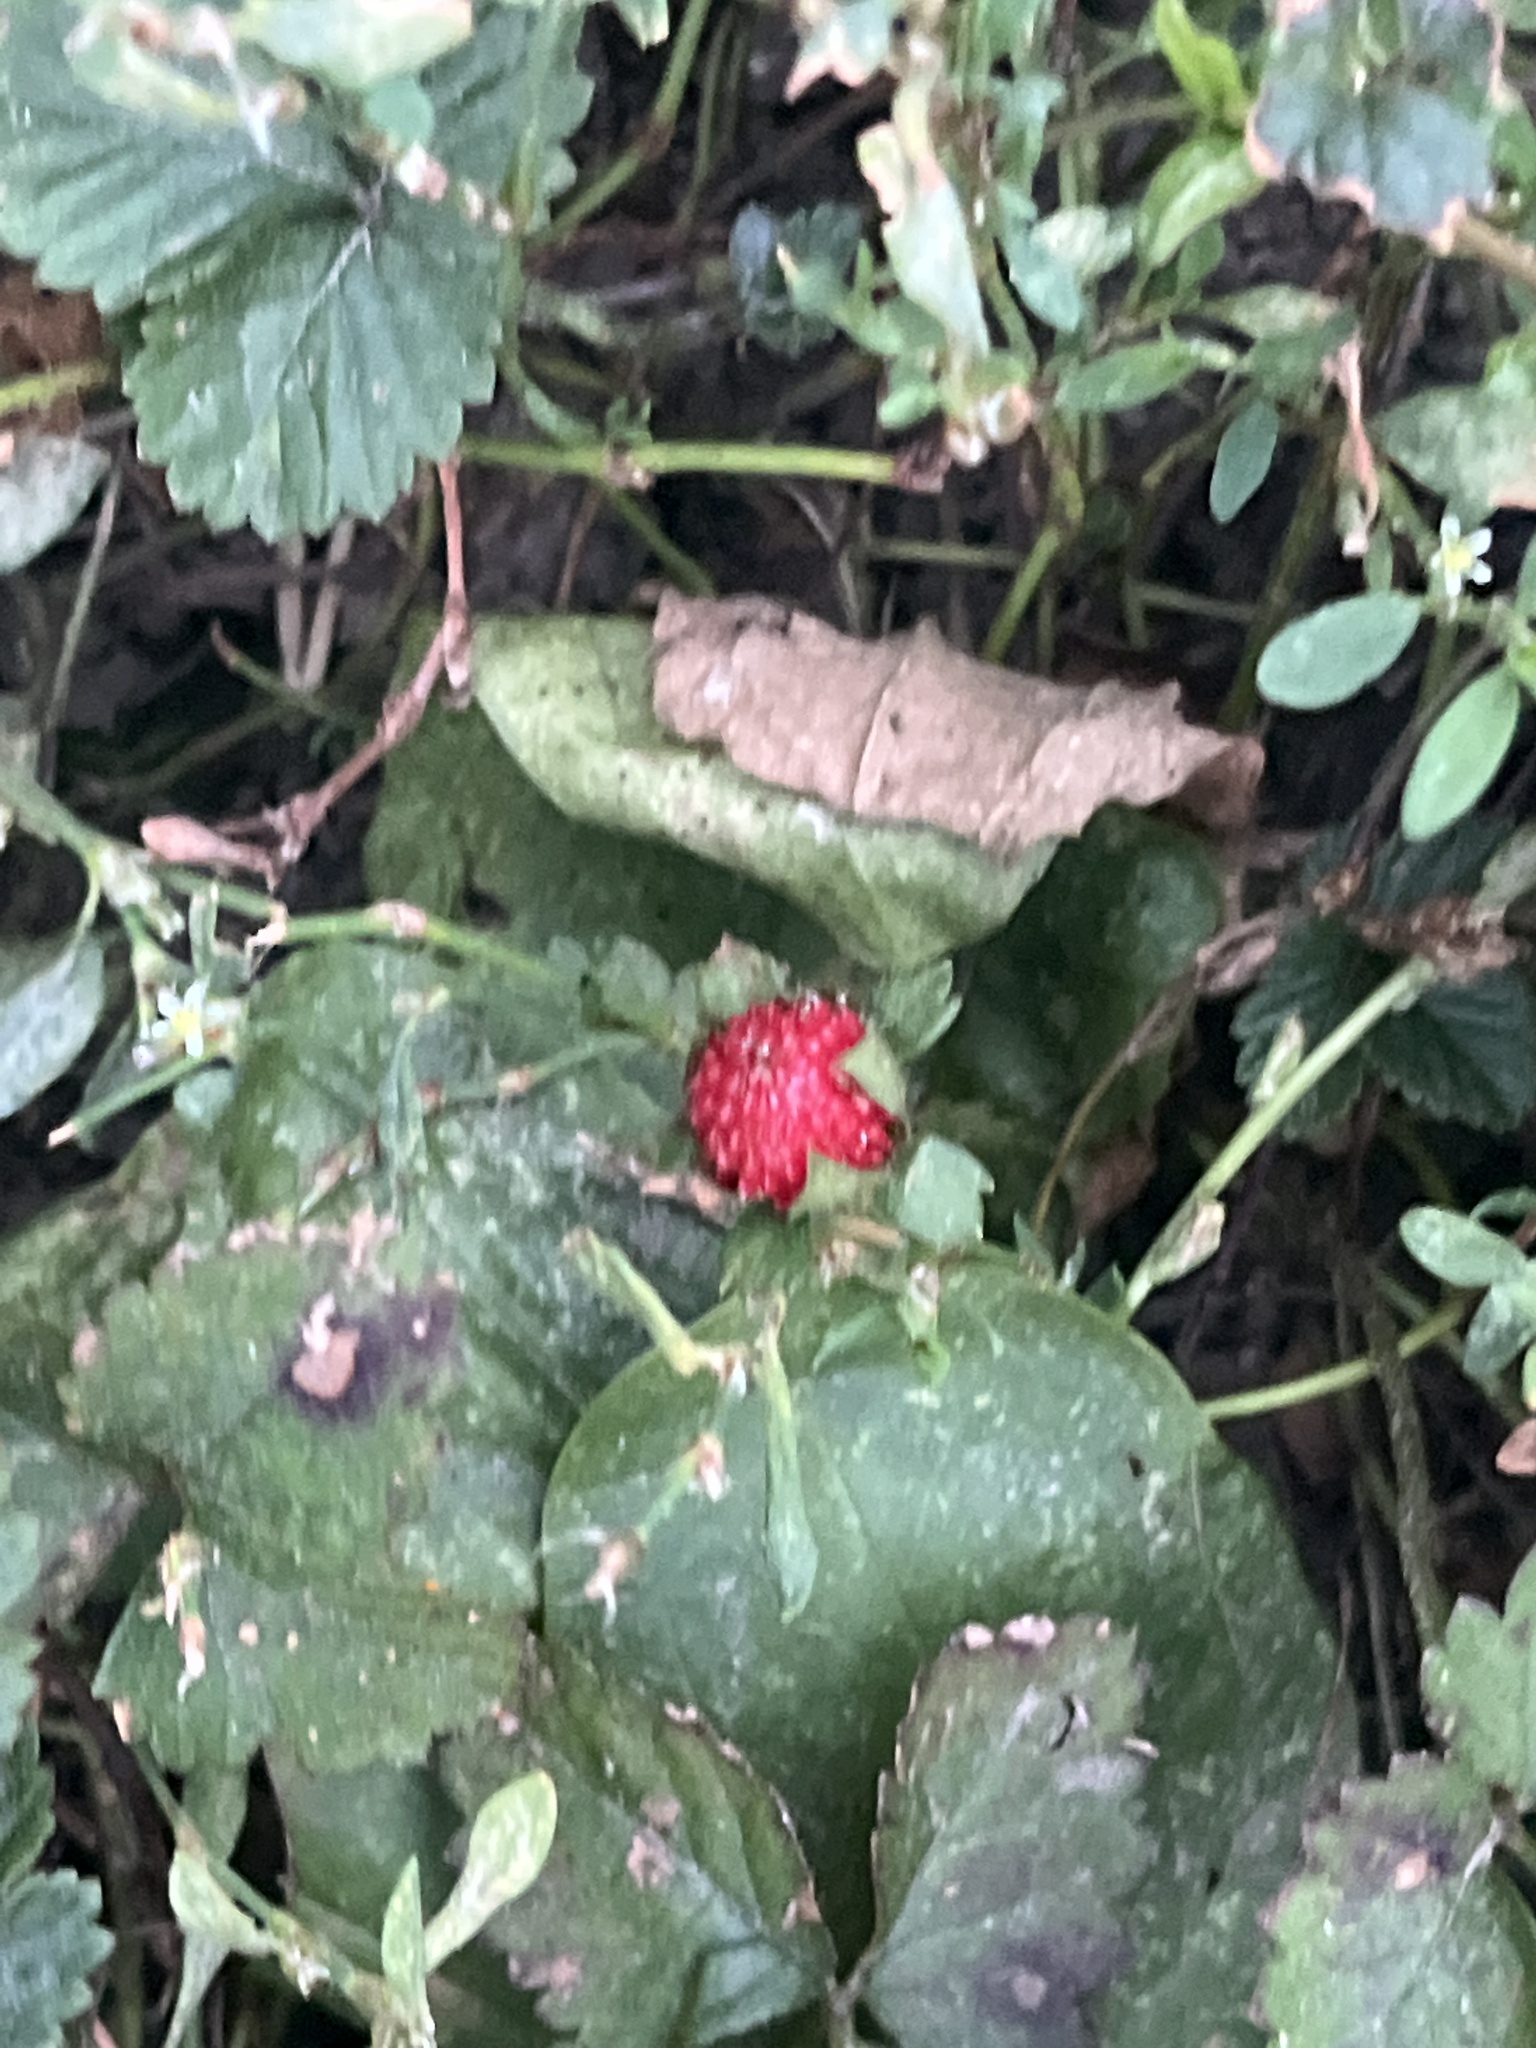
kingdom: Plantae
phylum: Tracheophyta
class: Magnoliopsida
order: Rosales
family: Rosaceae
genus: Potentilla
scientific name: Potentilla indica
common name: Yellow-flowered strawberry
